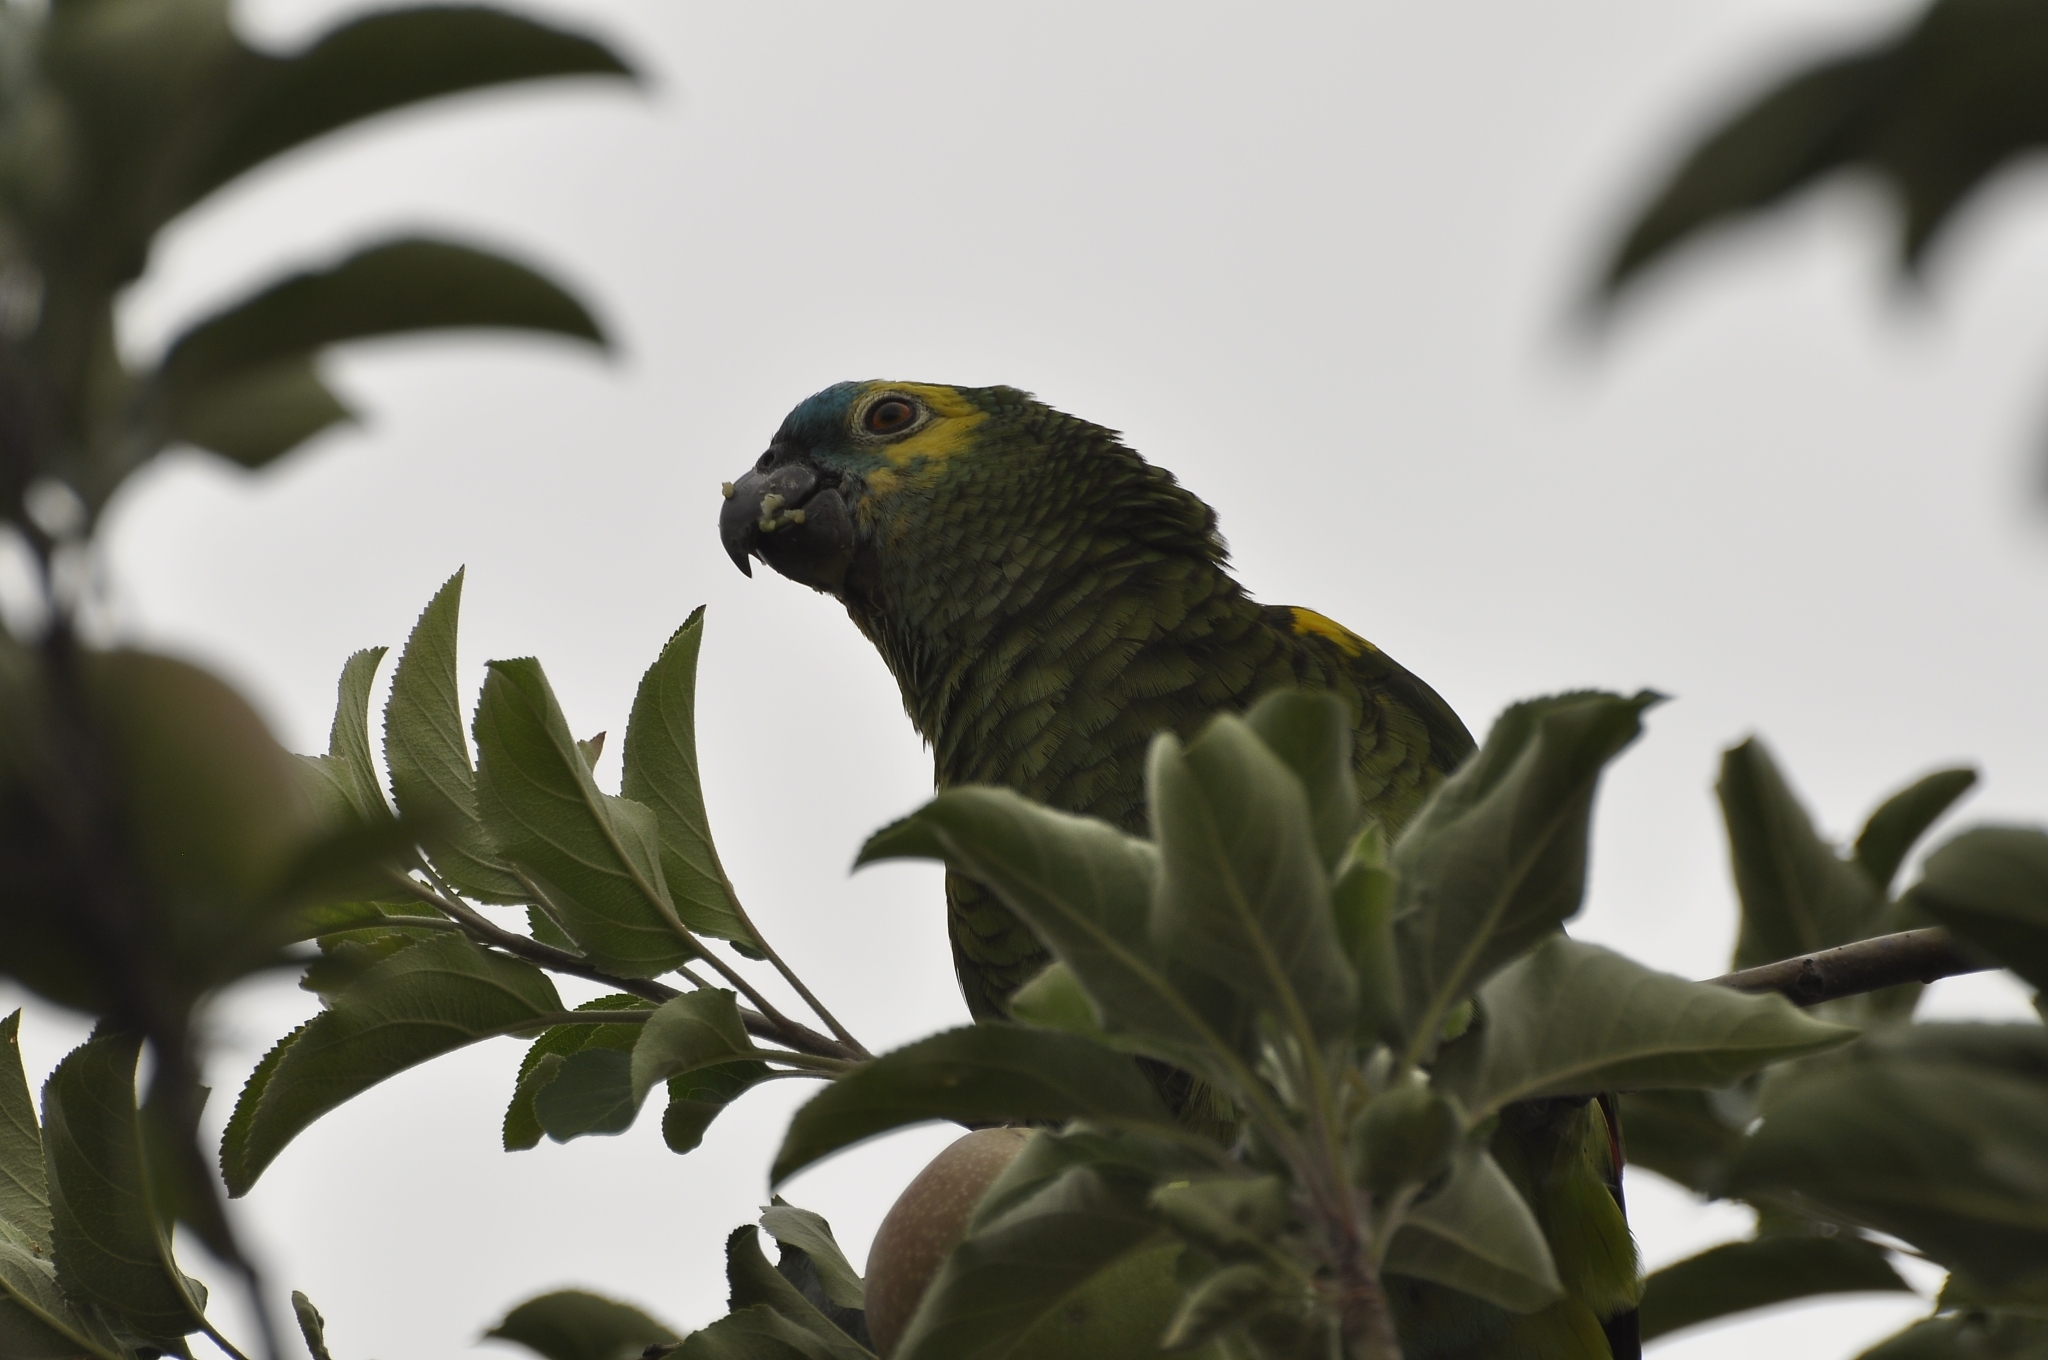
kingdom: Animalia
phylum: Chordata
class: Aves
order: Psittaciformes
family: Psittacidae
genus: Amazona
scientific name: Amazona aestiva
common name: Turquoise-fronted amazon
